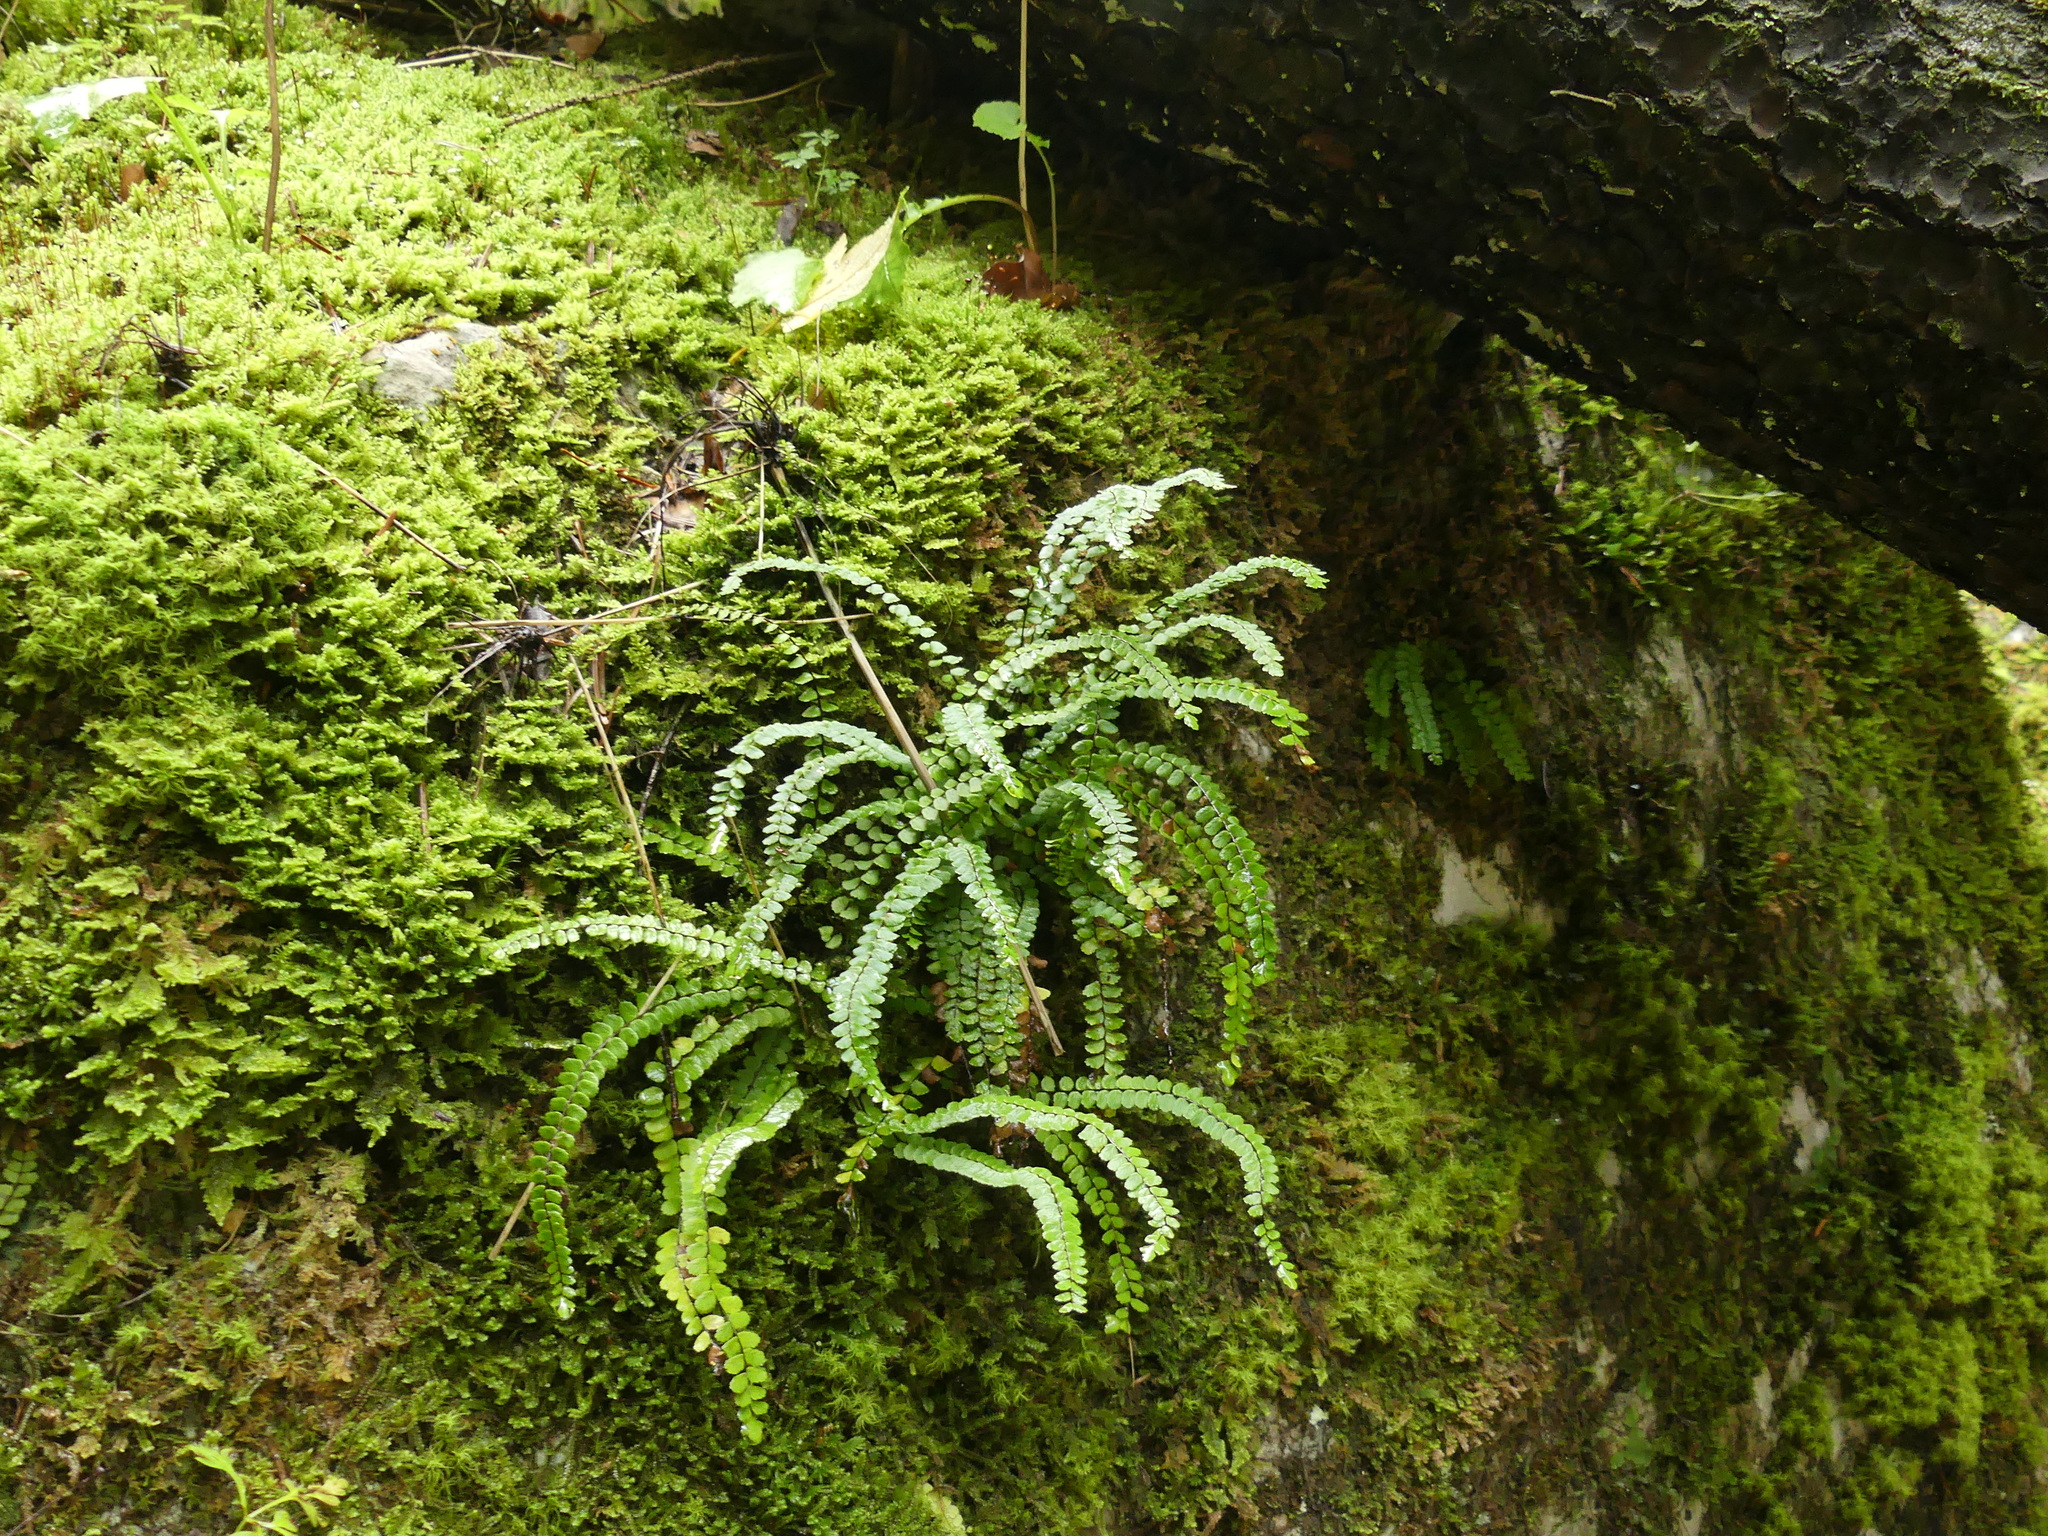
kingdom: Plantae
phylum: Tracheophyta
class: Polypodiopsida
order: Polypodiales
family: Aspleniaceae
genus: Asplenium
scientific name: Asplenium trichomanes
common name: Maidenhair spleenwort
